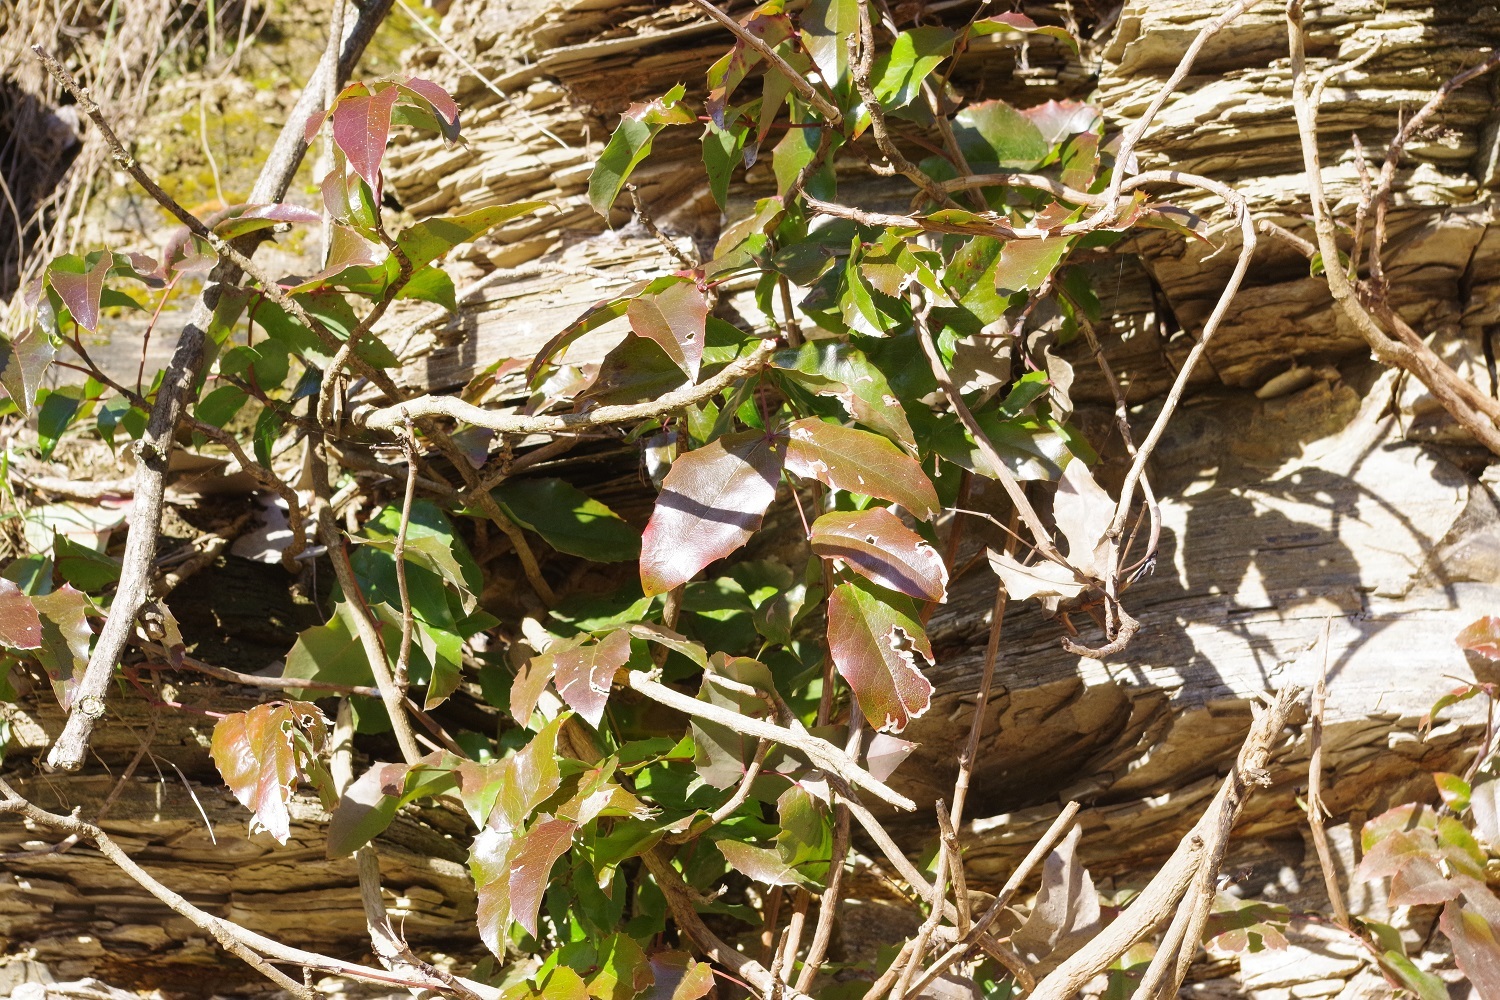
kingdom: Plantae
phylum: Tracheophyta
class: Magnoliopsida
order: Ranunculales
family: Berberidaceae
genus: Mahonia
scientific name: Mahonia aquifolium
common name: Oregon-grape
